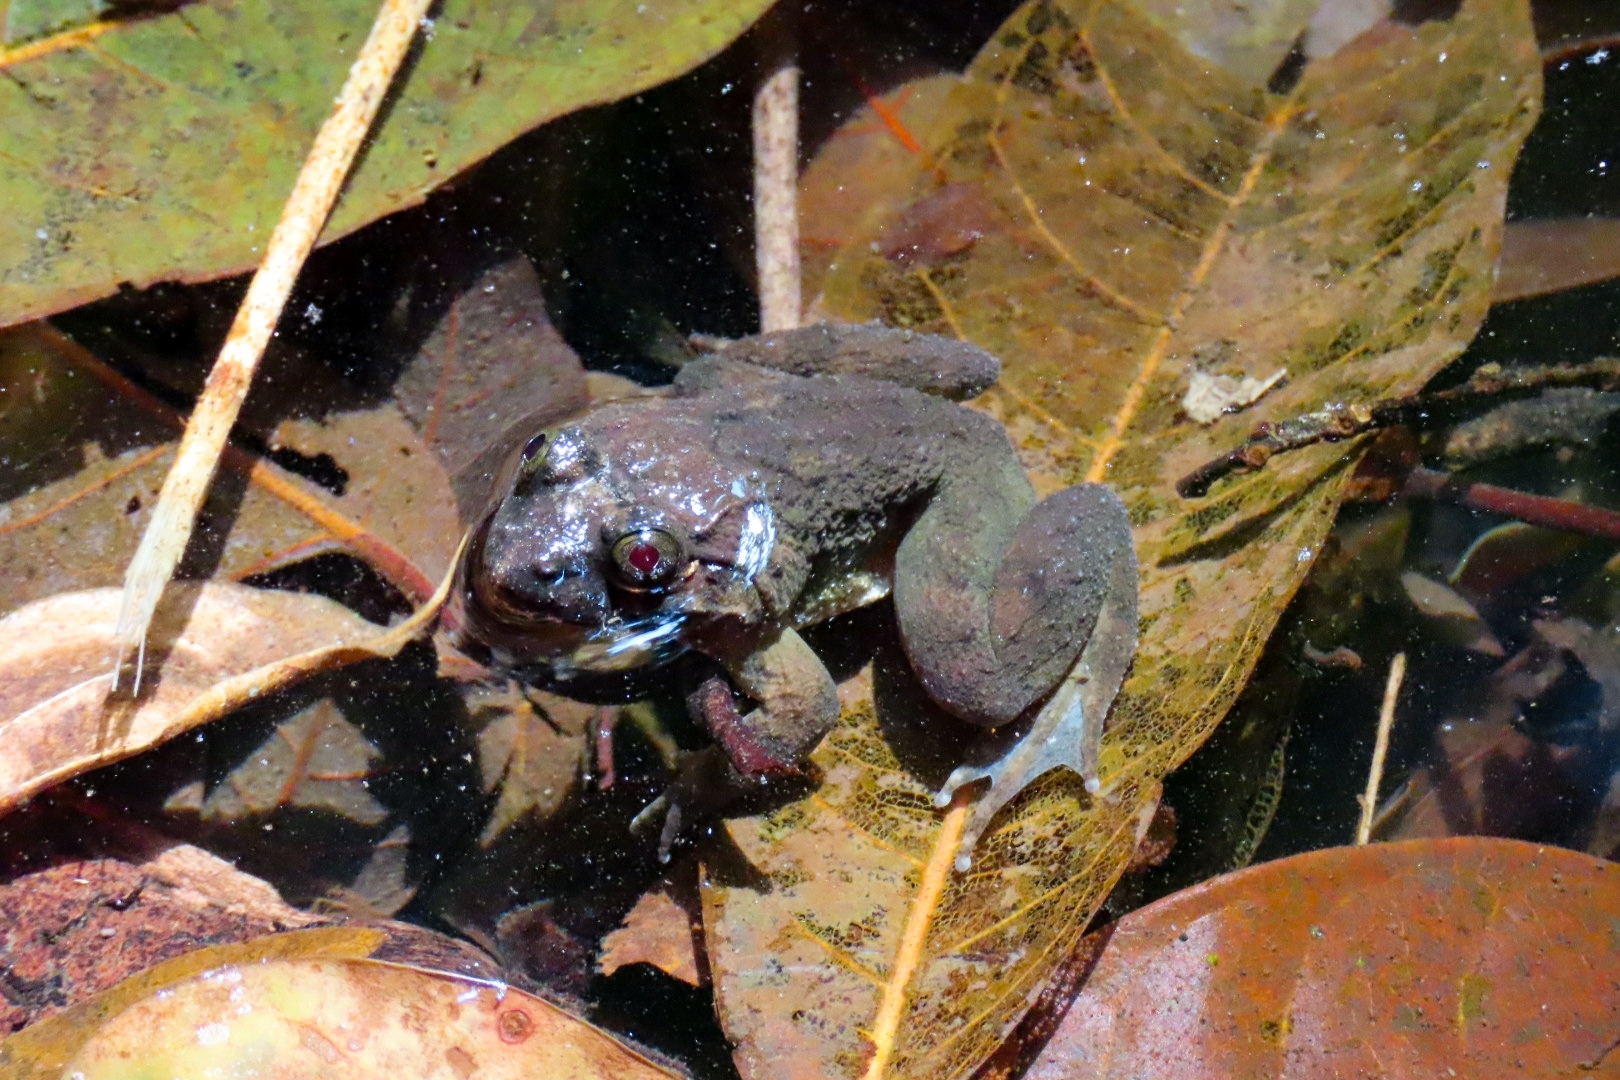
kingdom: Animalia
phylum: Chordata
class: Amphibia
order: Anura
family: Dicroglossidae
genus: Limnonectes
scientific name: Limnonectes fujianensis
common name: Fujian large-headed frog
